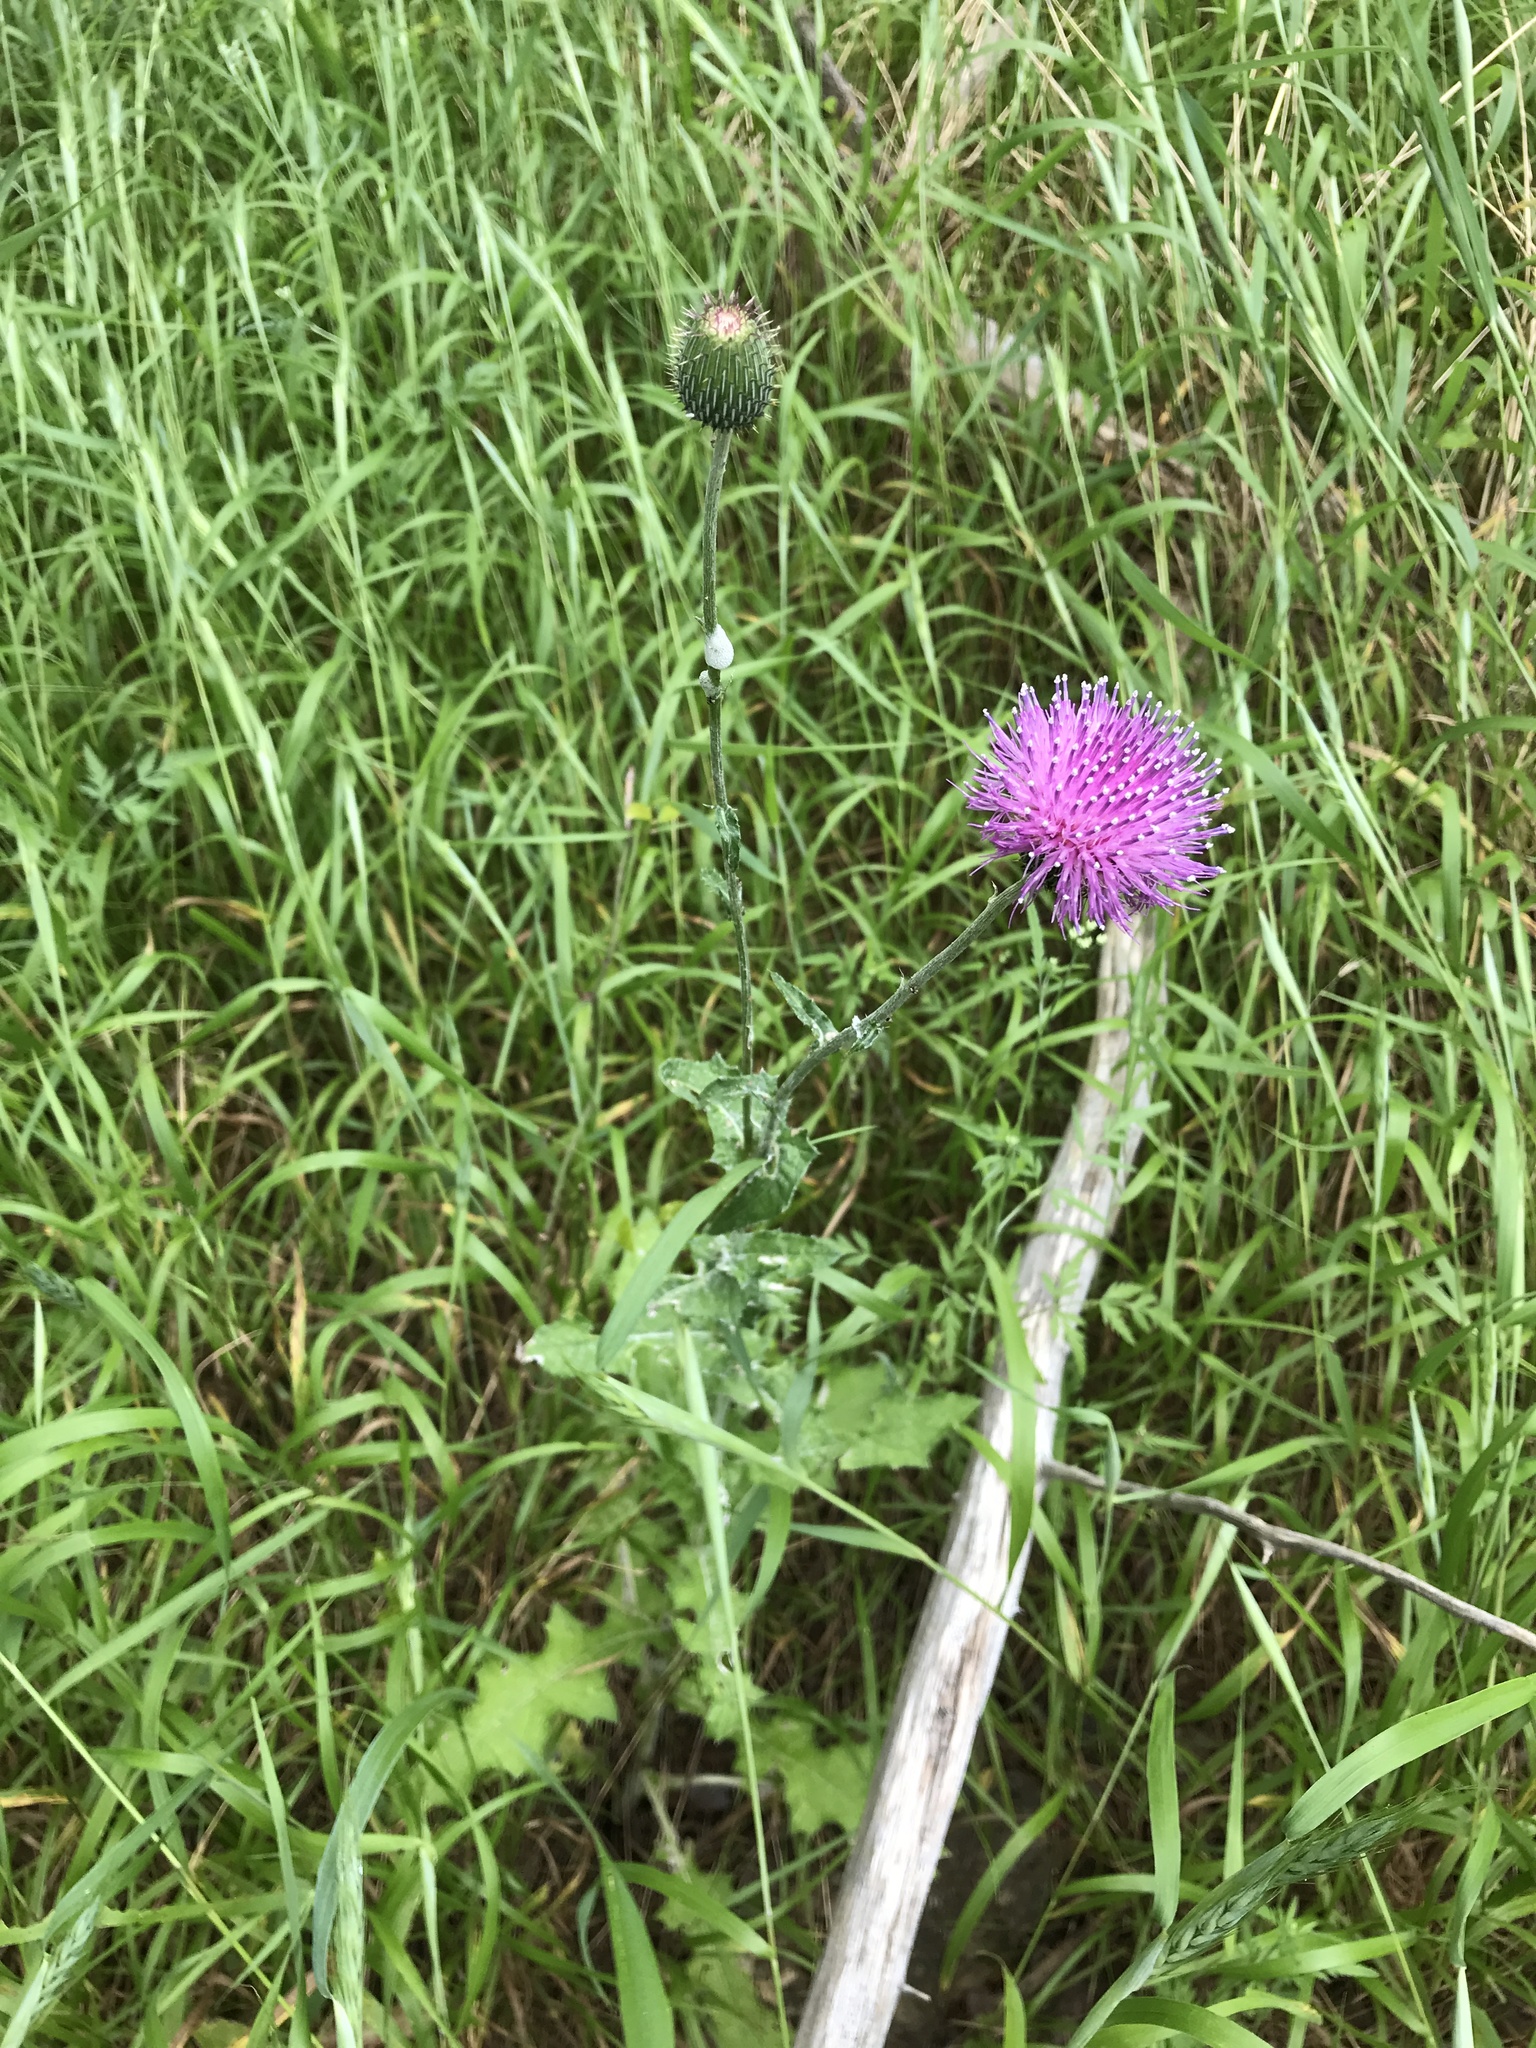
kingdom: Plantae
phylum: Tracheophyta
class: Magnoliopsida
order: Asterales
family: Asteraceae
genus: Cirsium
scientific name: Cirsium texanum
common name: Texas purple thistle
